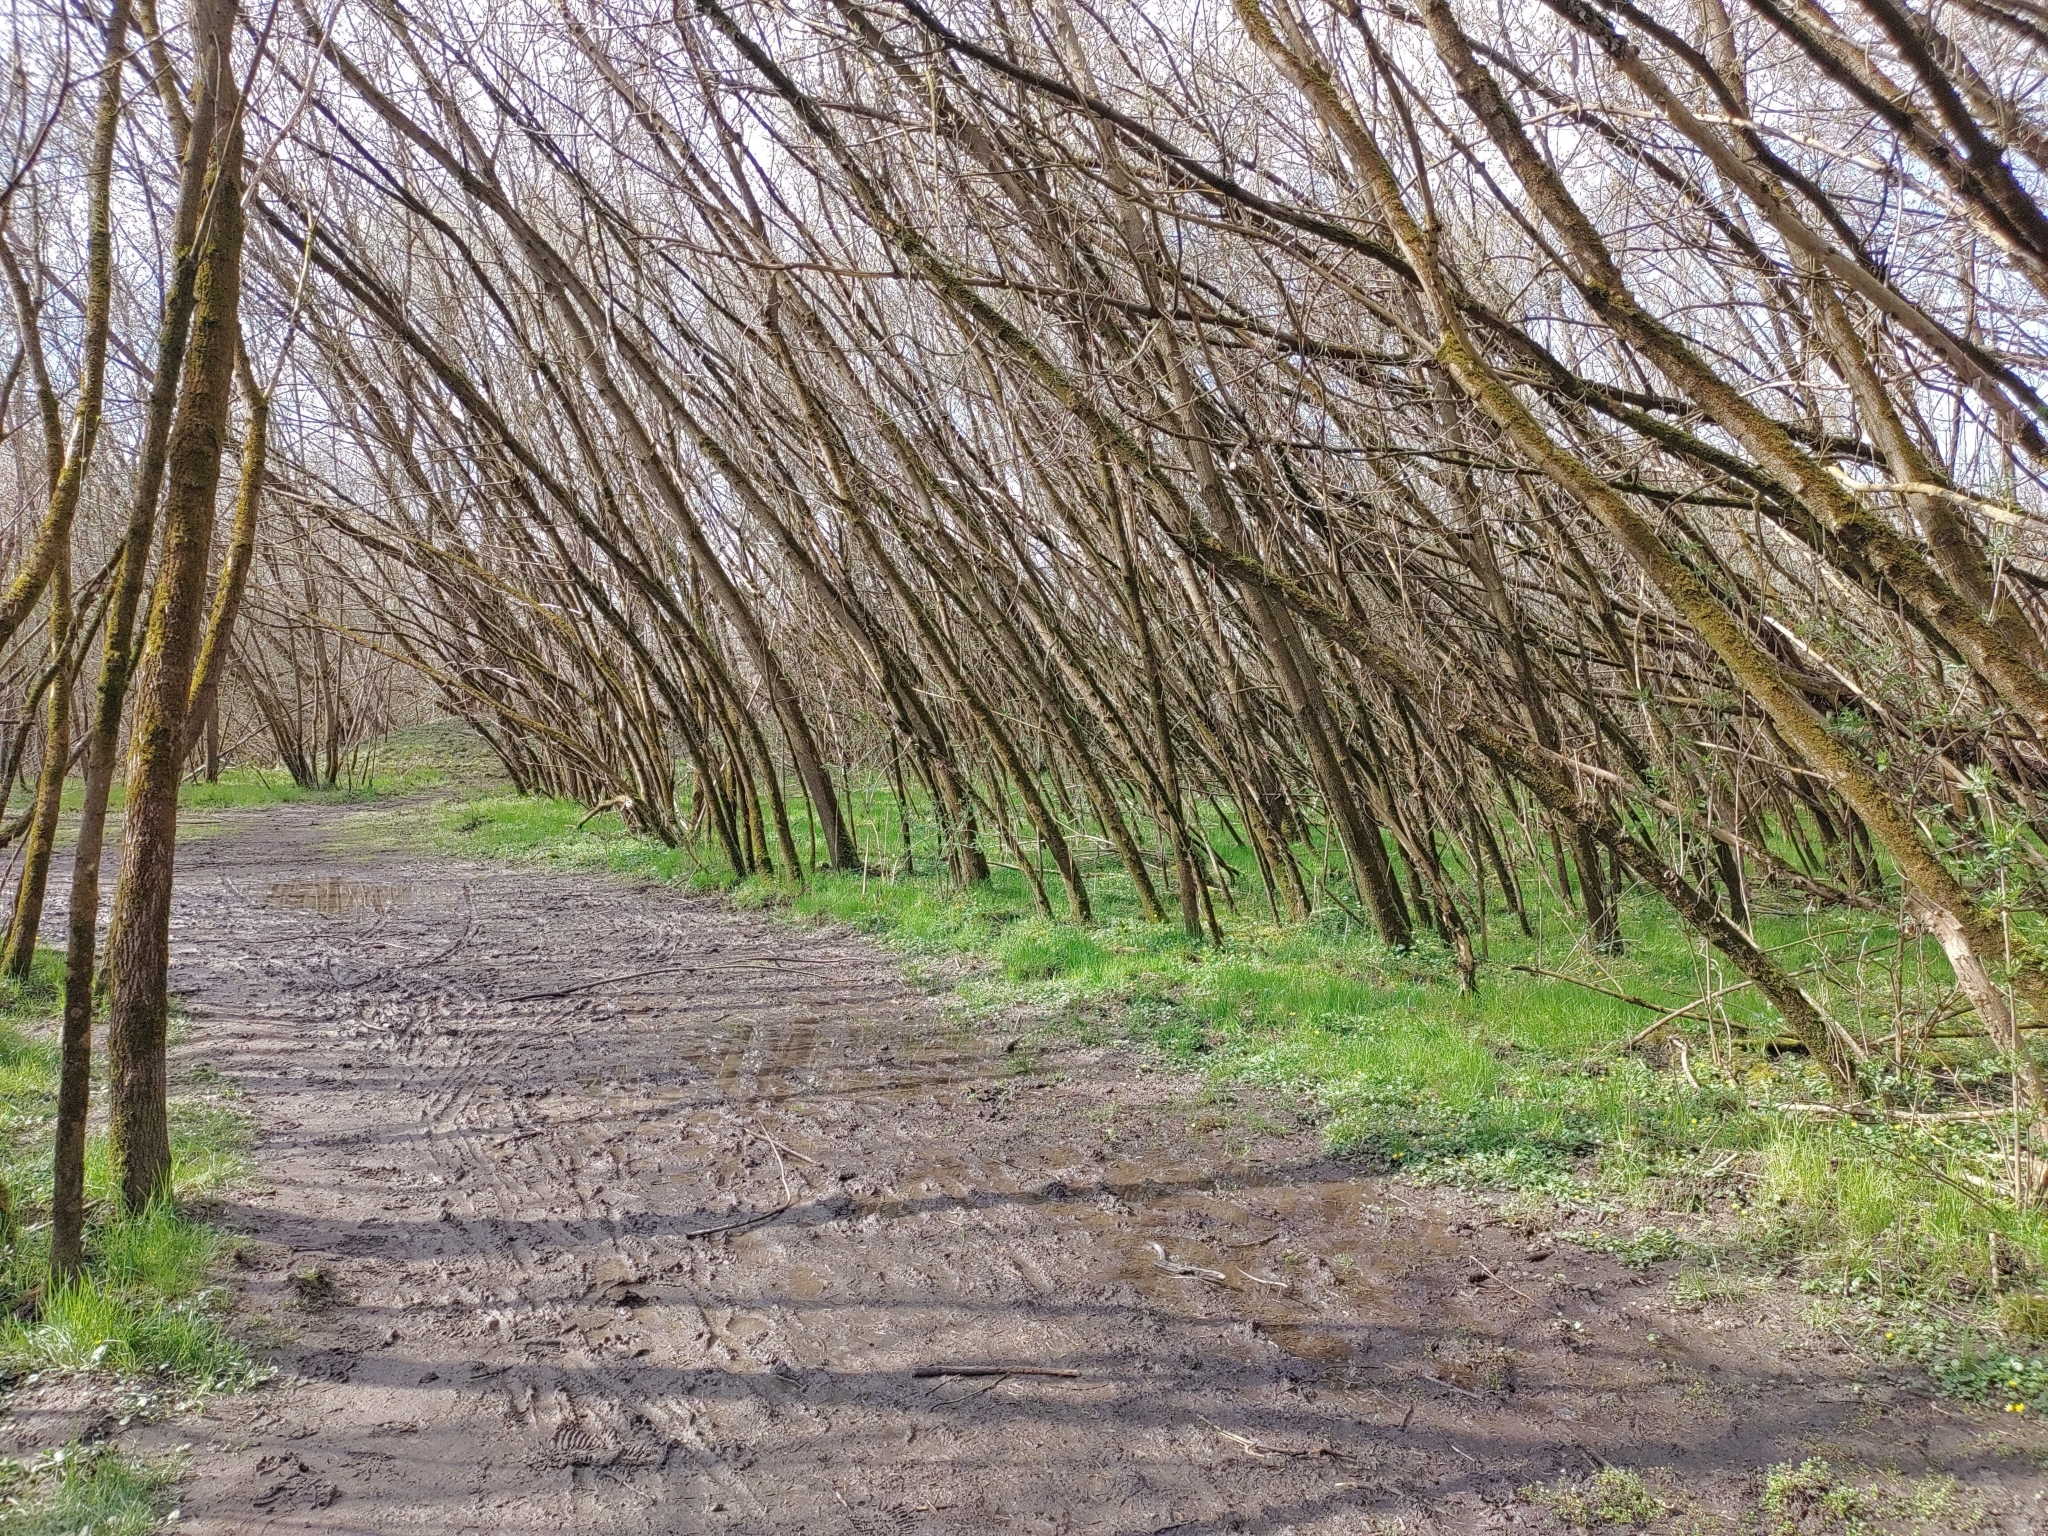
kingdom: Animalia
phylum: Chordata
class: Aves
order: Passeriformes
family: Sittidae
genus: Sitta
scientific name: Sitta europaea
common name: Eurasian nuthatch
